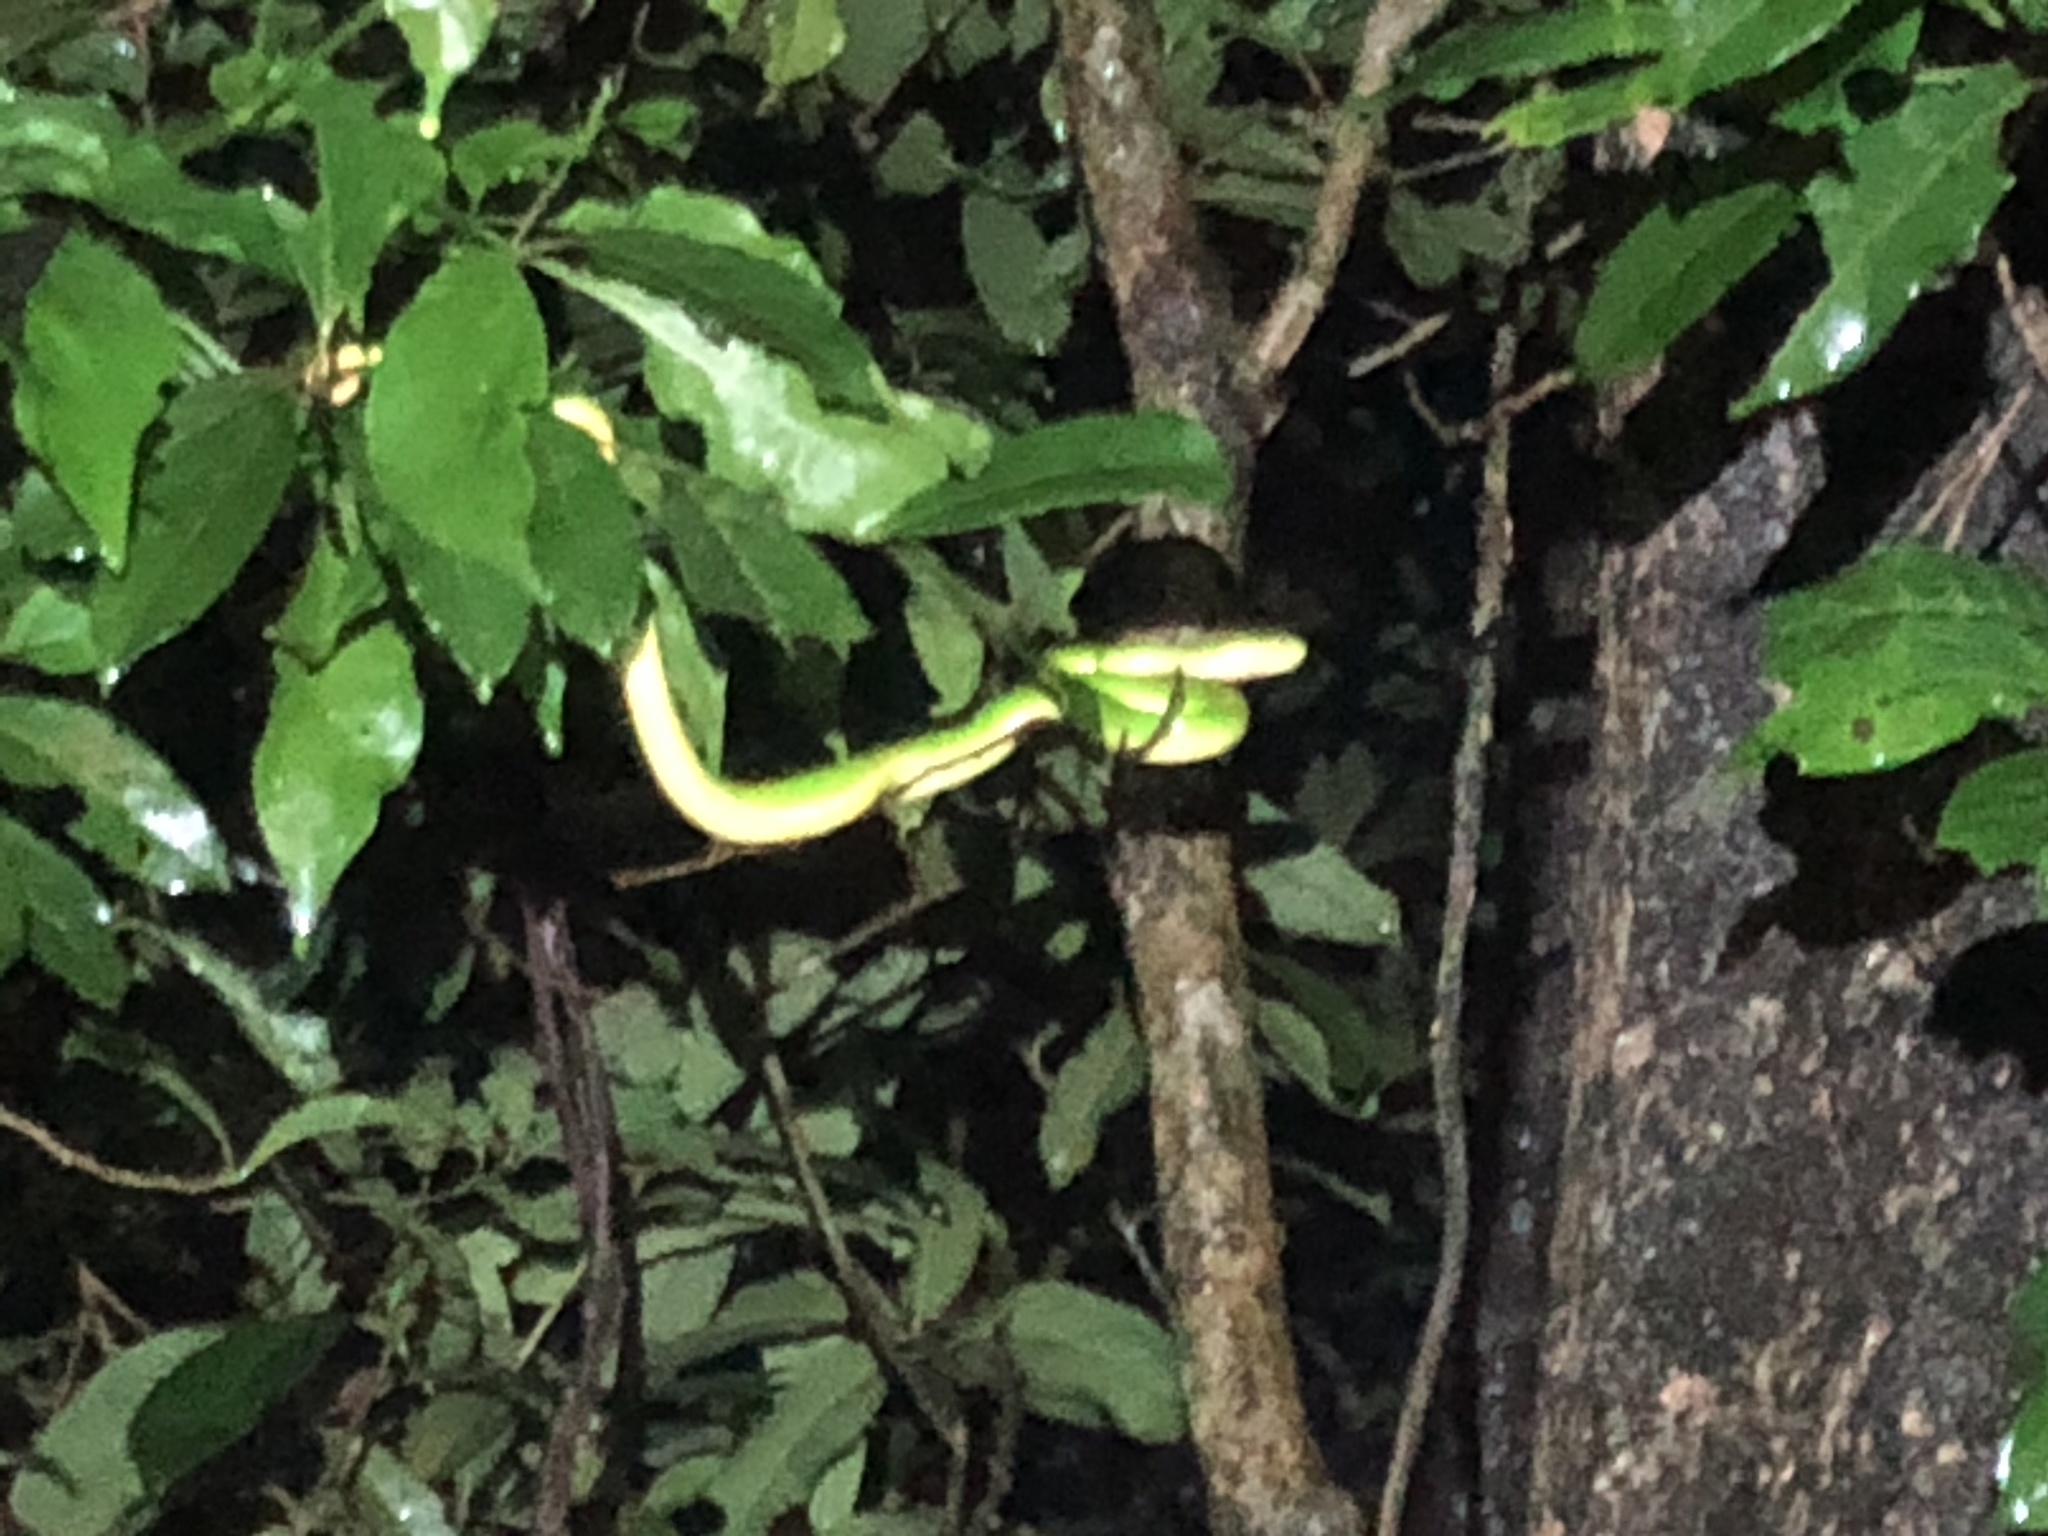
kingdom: Animalia
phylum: Chordata
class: Squamata
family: Viperidae
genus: Trimeresurus
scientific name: Trimeresurus albolabris
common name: White-lipped pitviper
